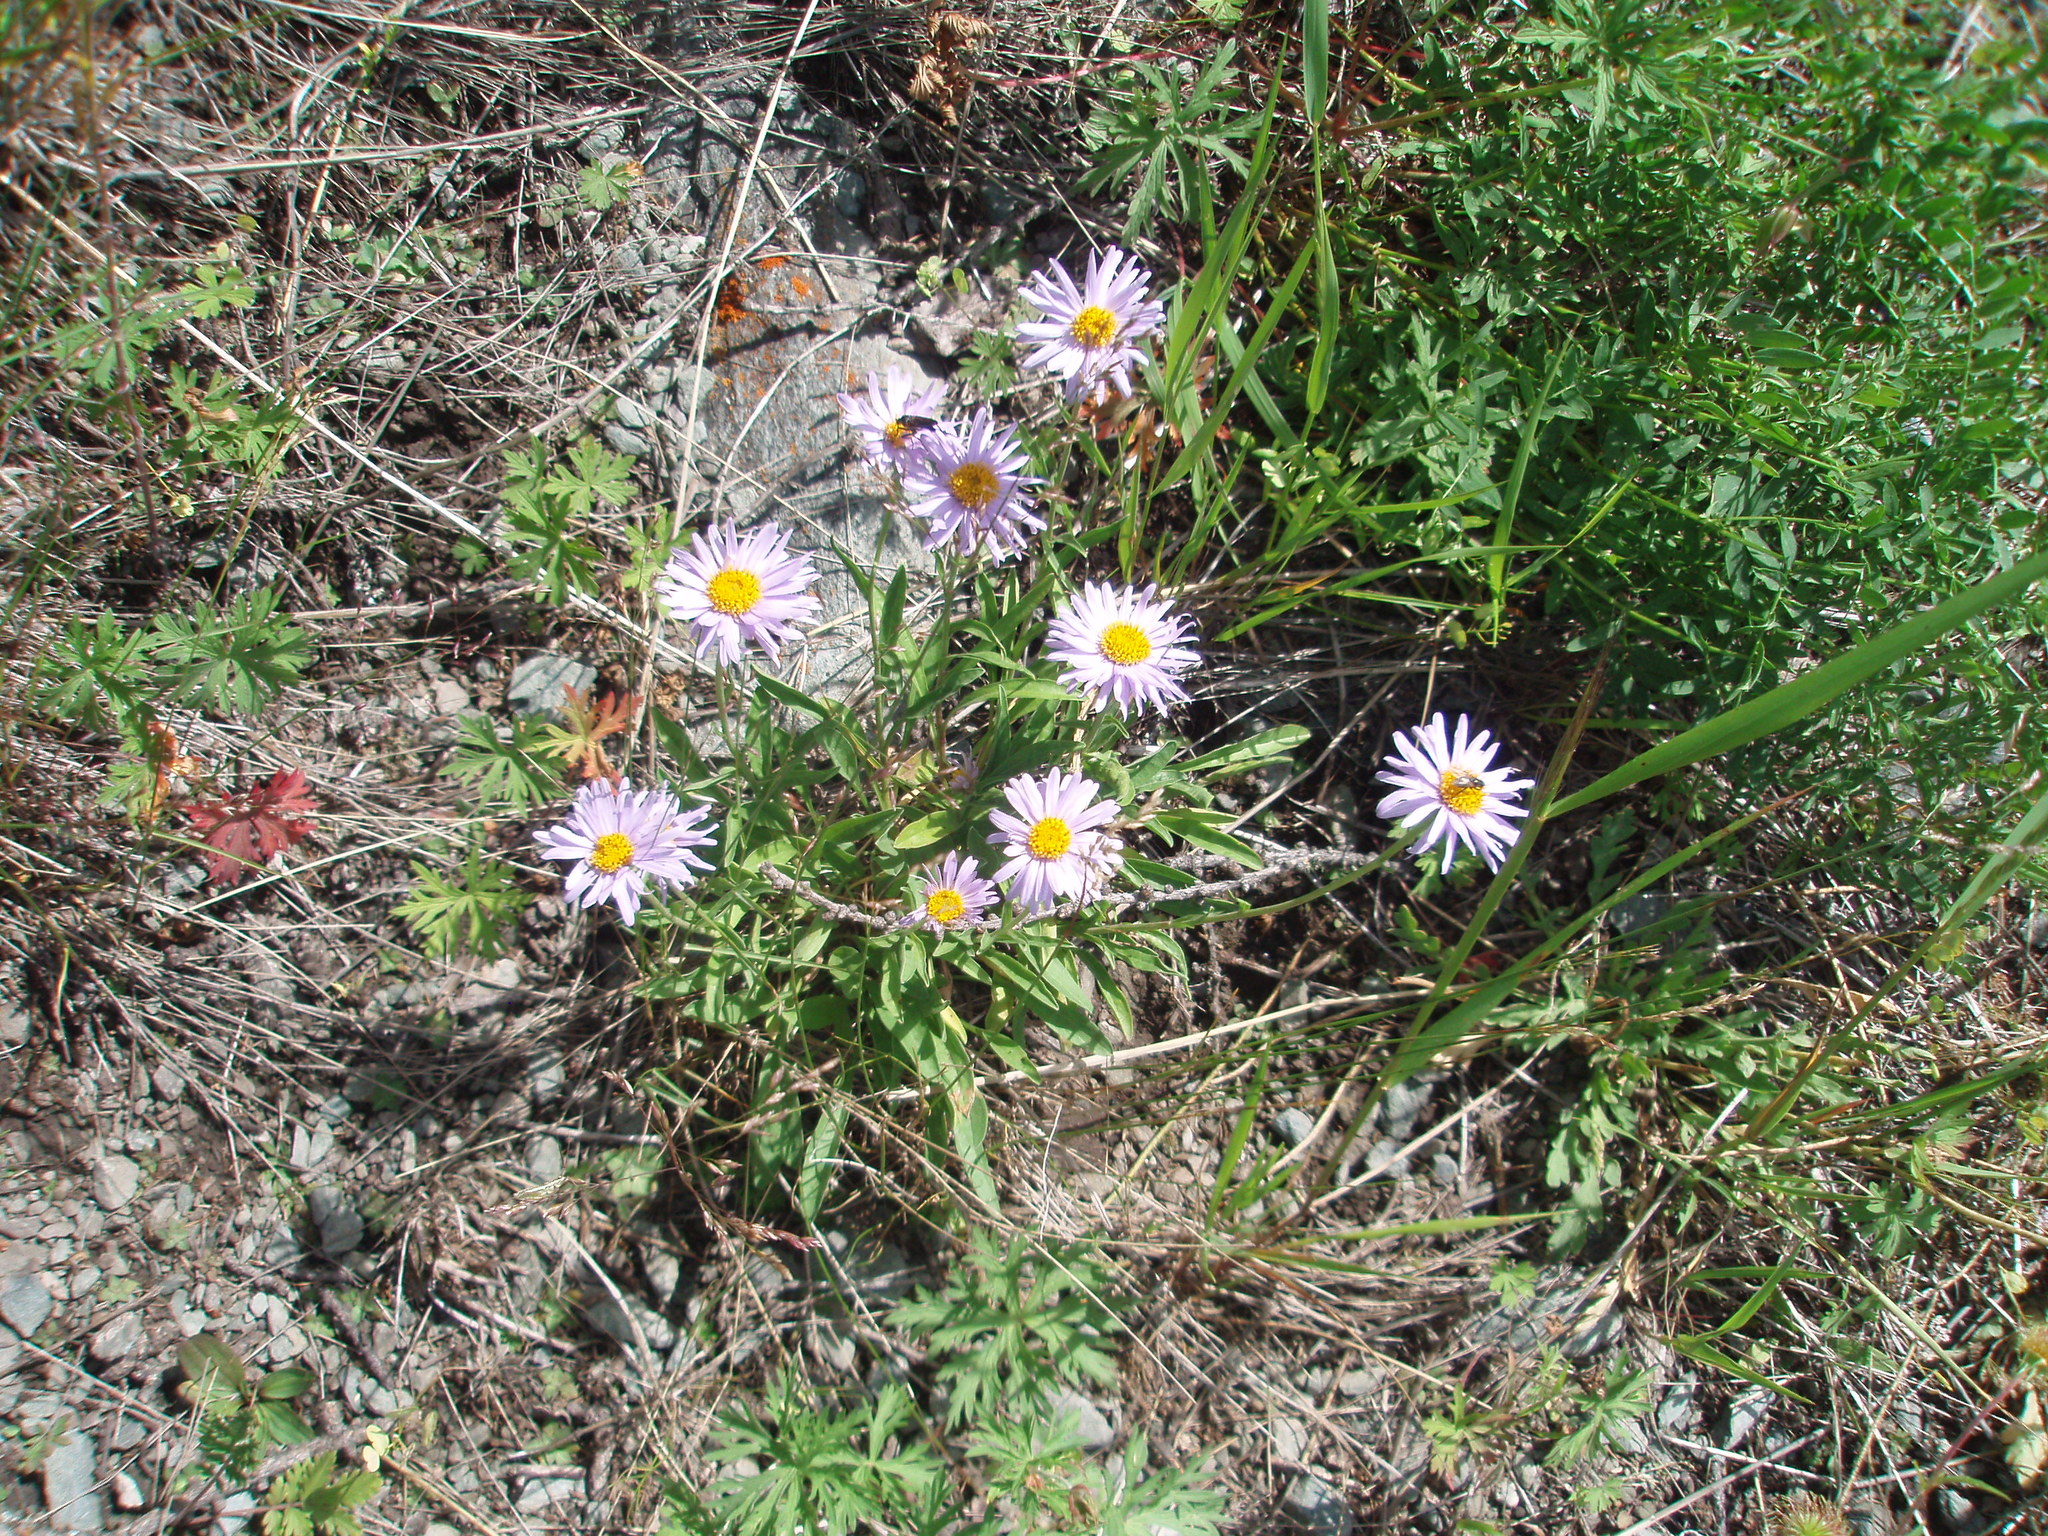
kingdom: Plantae
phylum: Tracheophyta
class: Magnoliopsida
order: Asterales
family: Asteraceae
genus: Aster
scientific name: Aster alpinus
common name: Alpine aster
